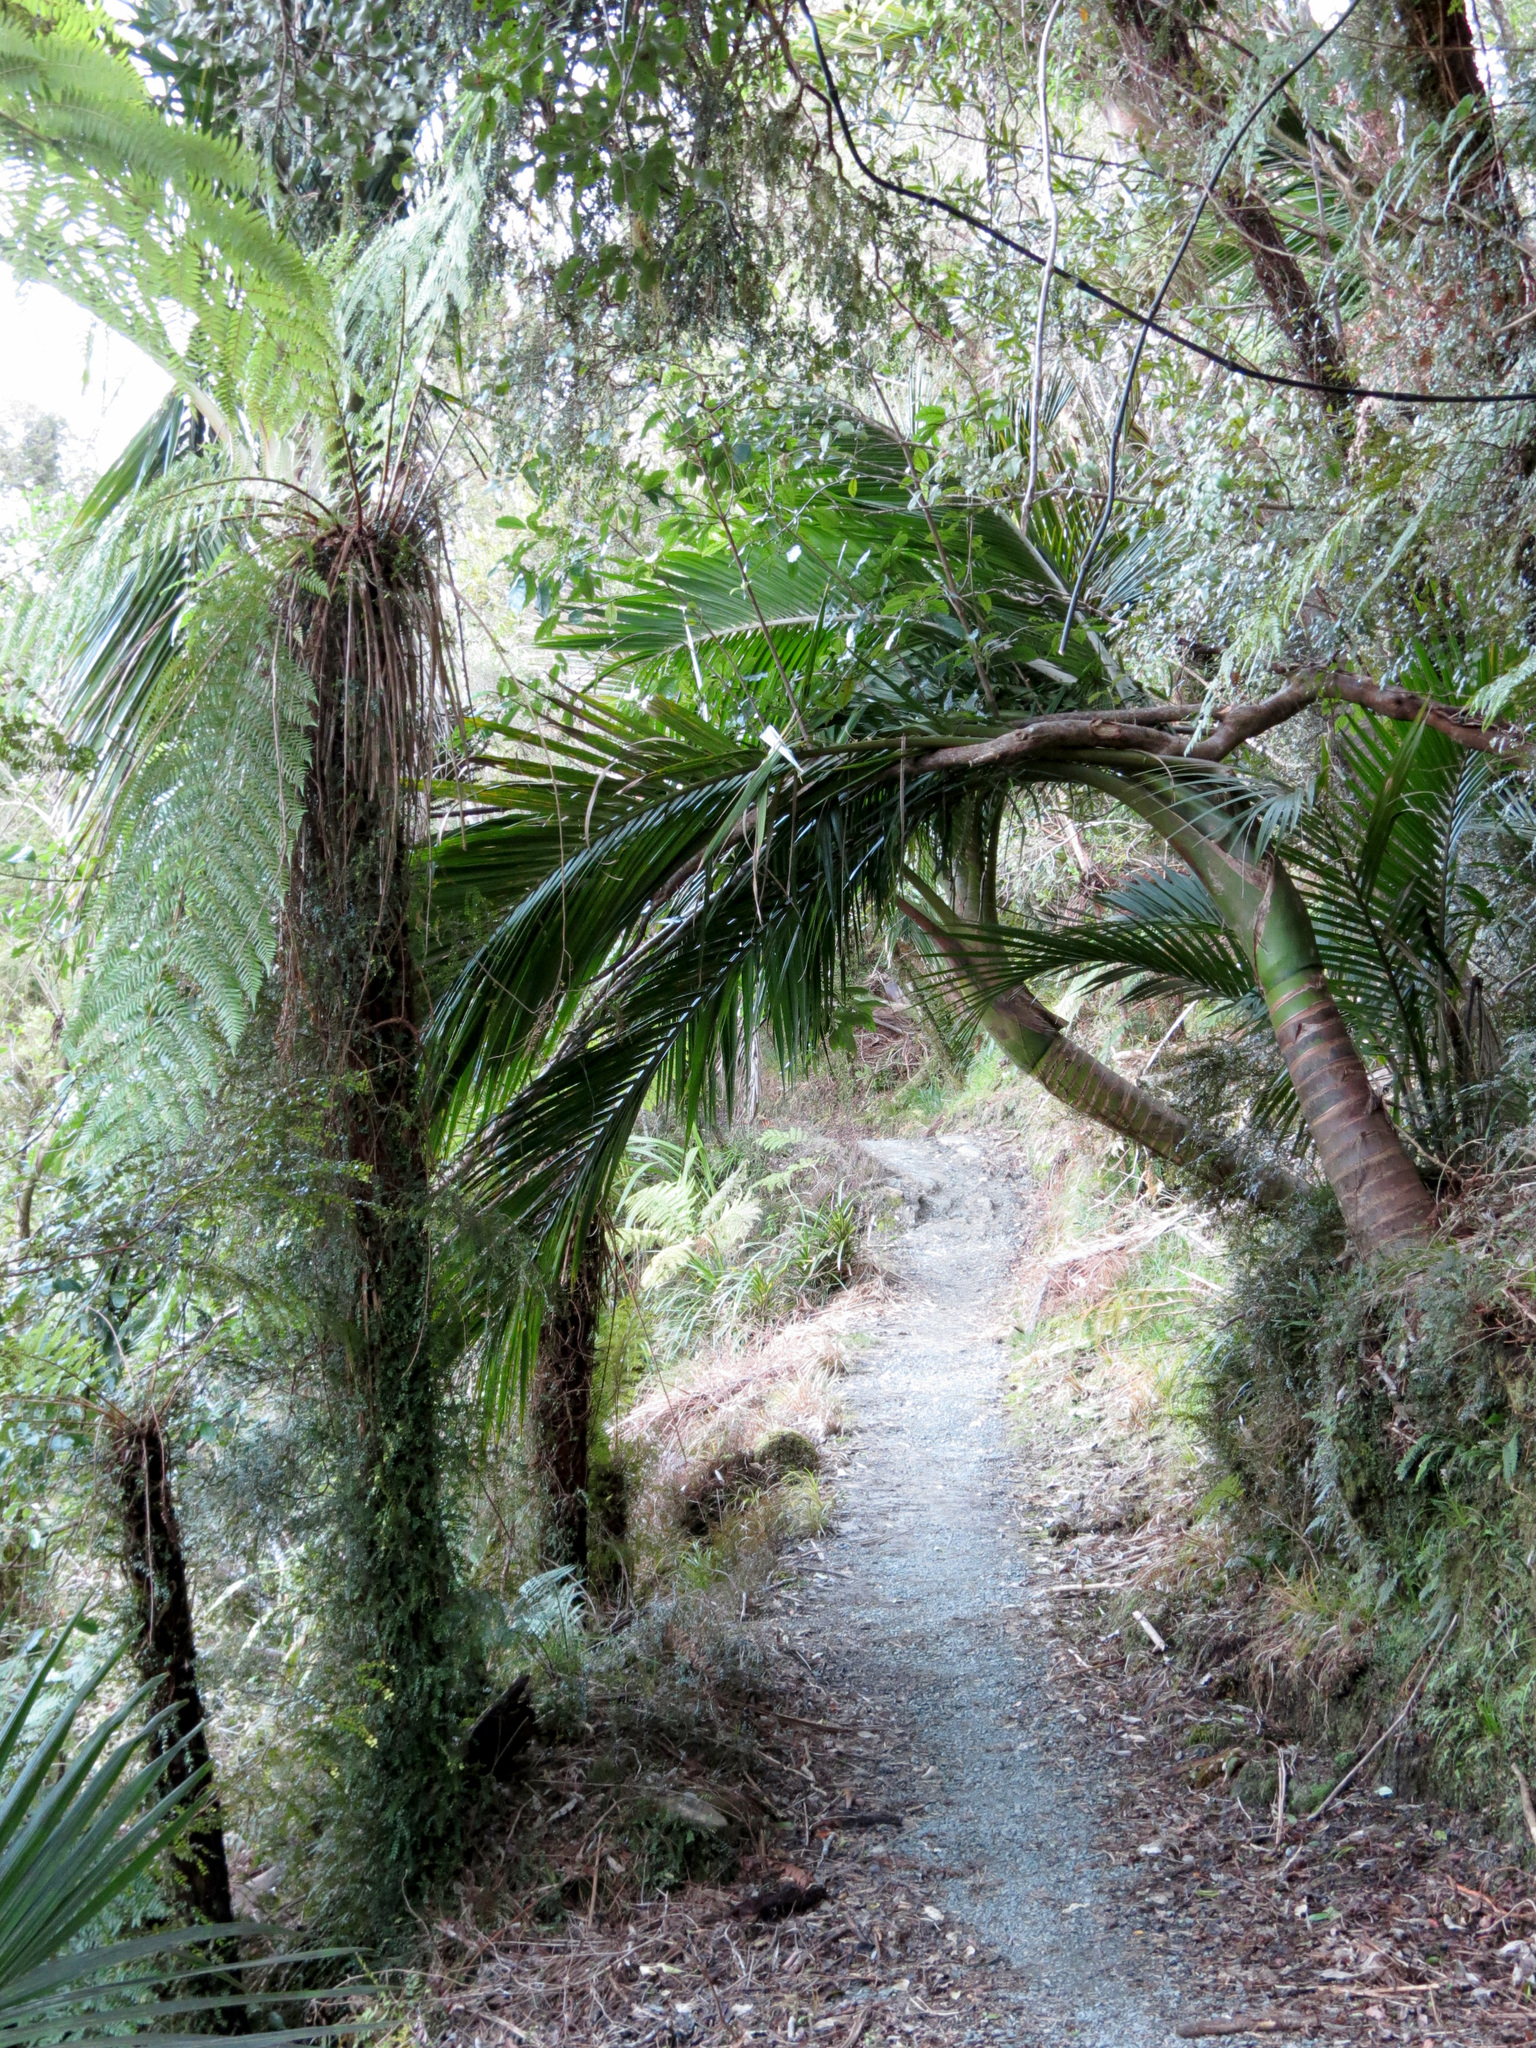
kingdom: Plantae
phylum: Tracheophyta
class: Liliopsida
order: Arecales
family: Arecaceae
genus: Rhopalostylis
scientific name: Rhopalostylis sapida
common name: Feather-duster palm
